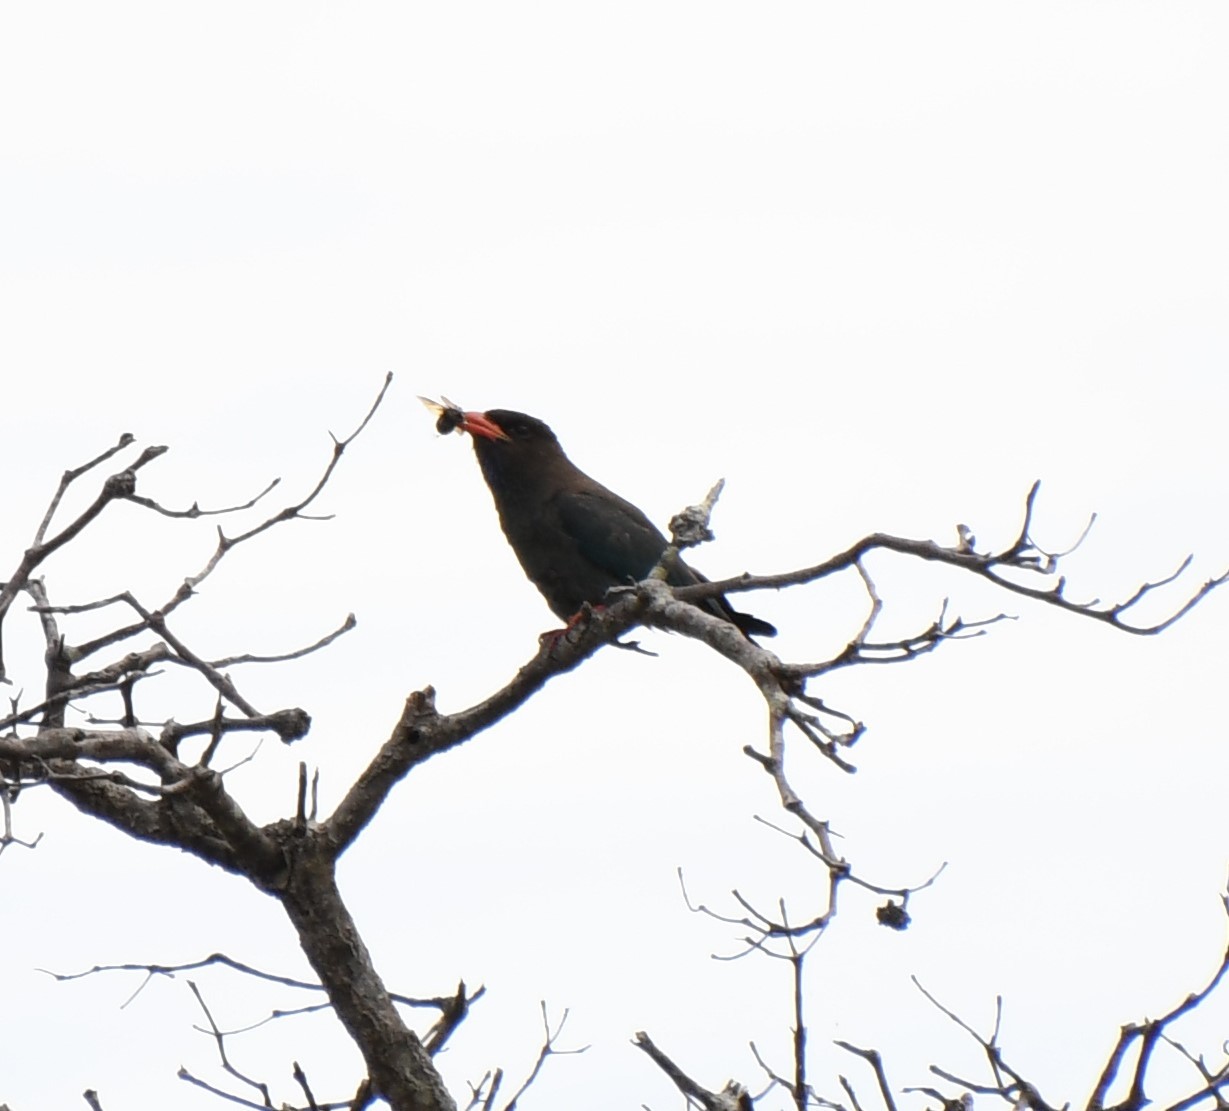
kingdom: Animalia
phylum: Chordata
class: Aves
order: Coraciiformes
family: Coraciidae
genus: Eurystomus
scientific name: Eurystomus orientalis
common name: Oriental dollarbird
